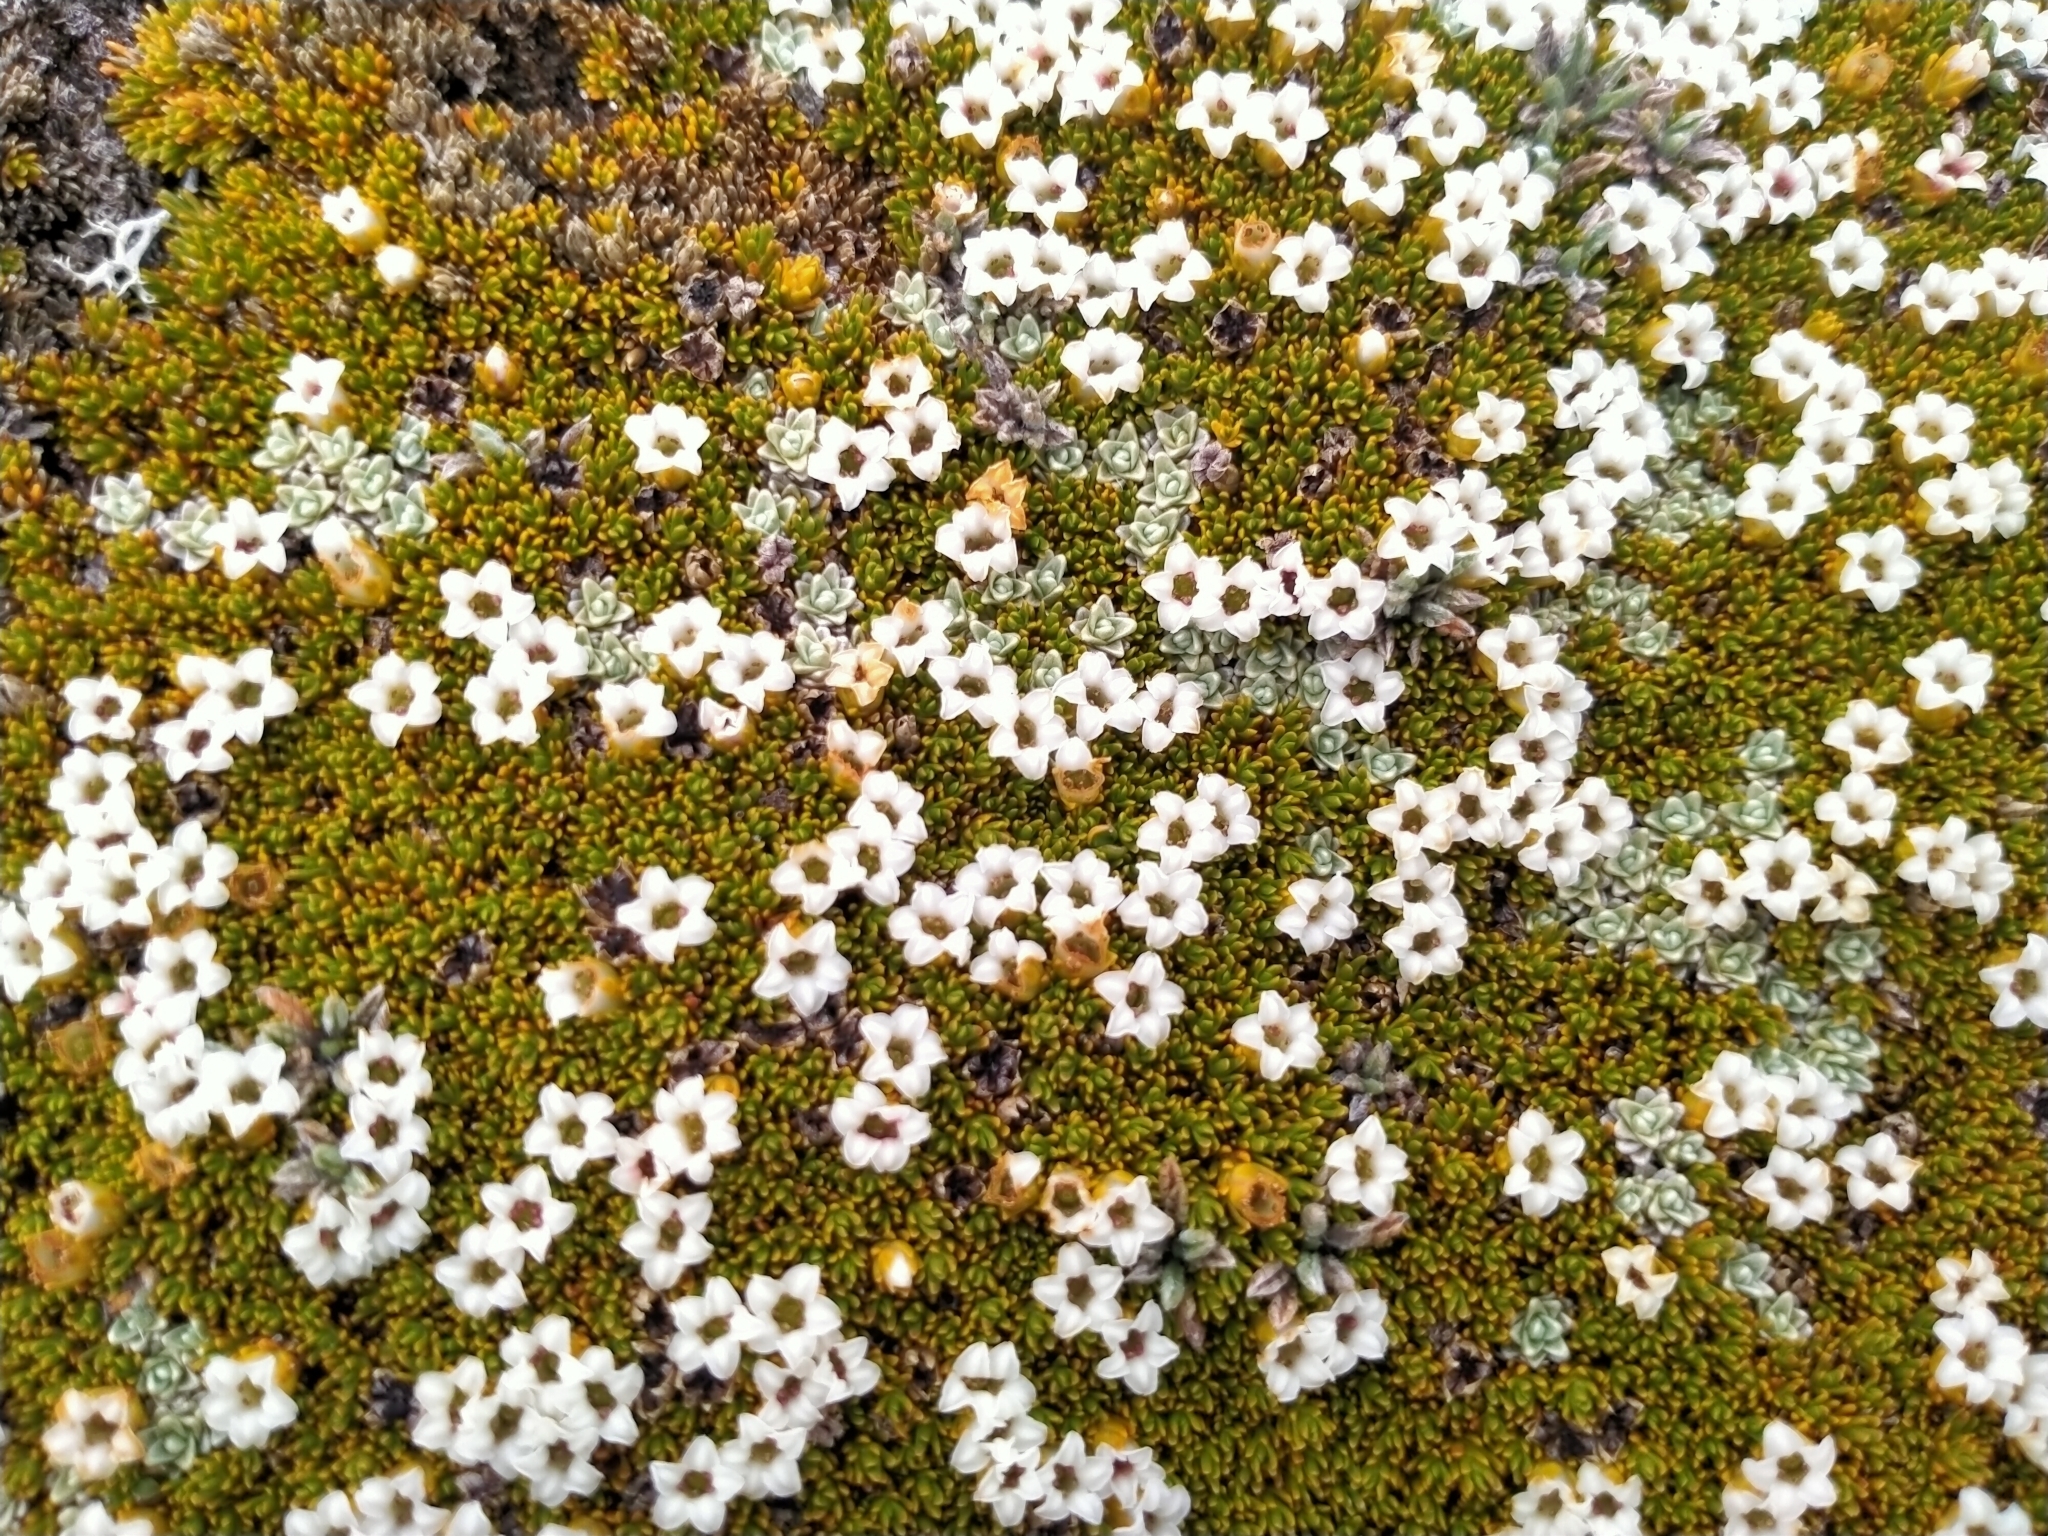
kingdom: Plantae
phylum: Tracheophyta
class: Magnoliopsida
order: Ericales
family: Ericaceae
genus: Dracophyllum
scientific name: Dracophyllum muscoides
